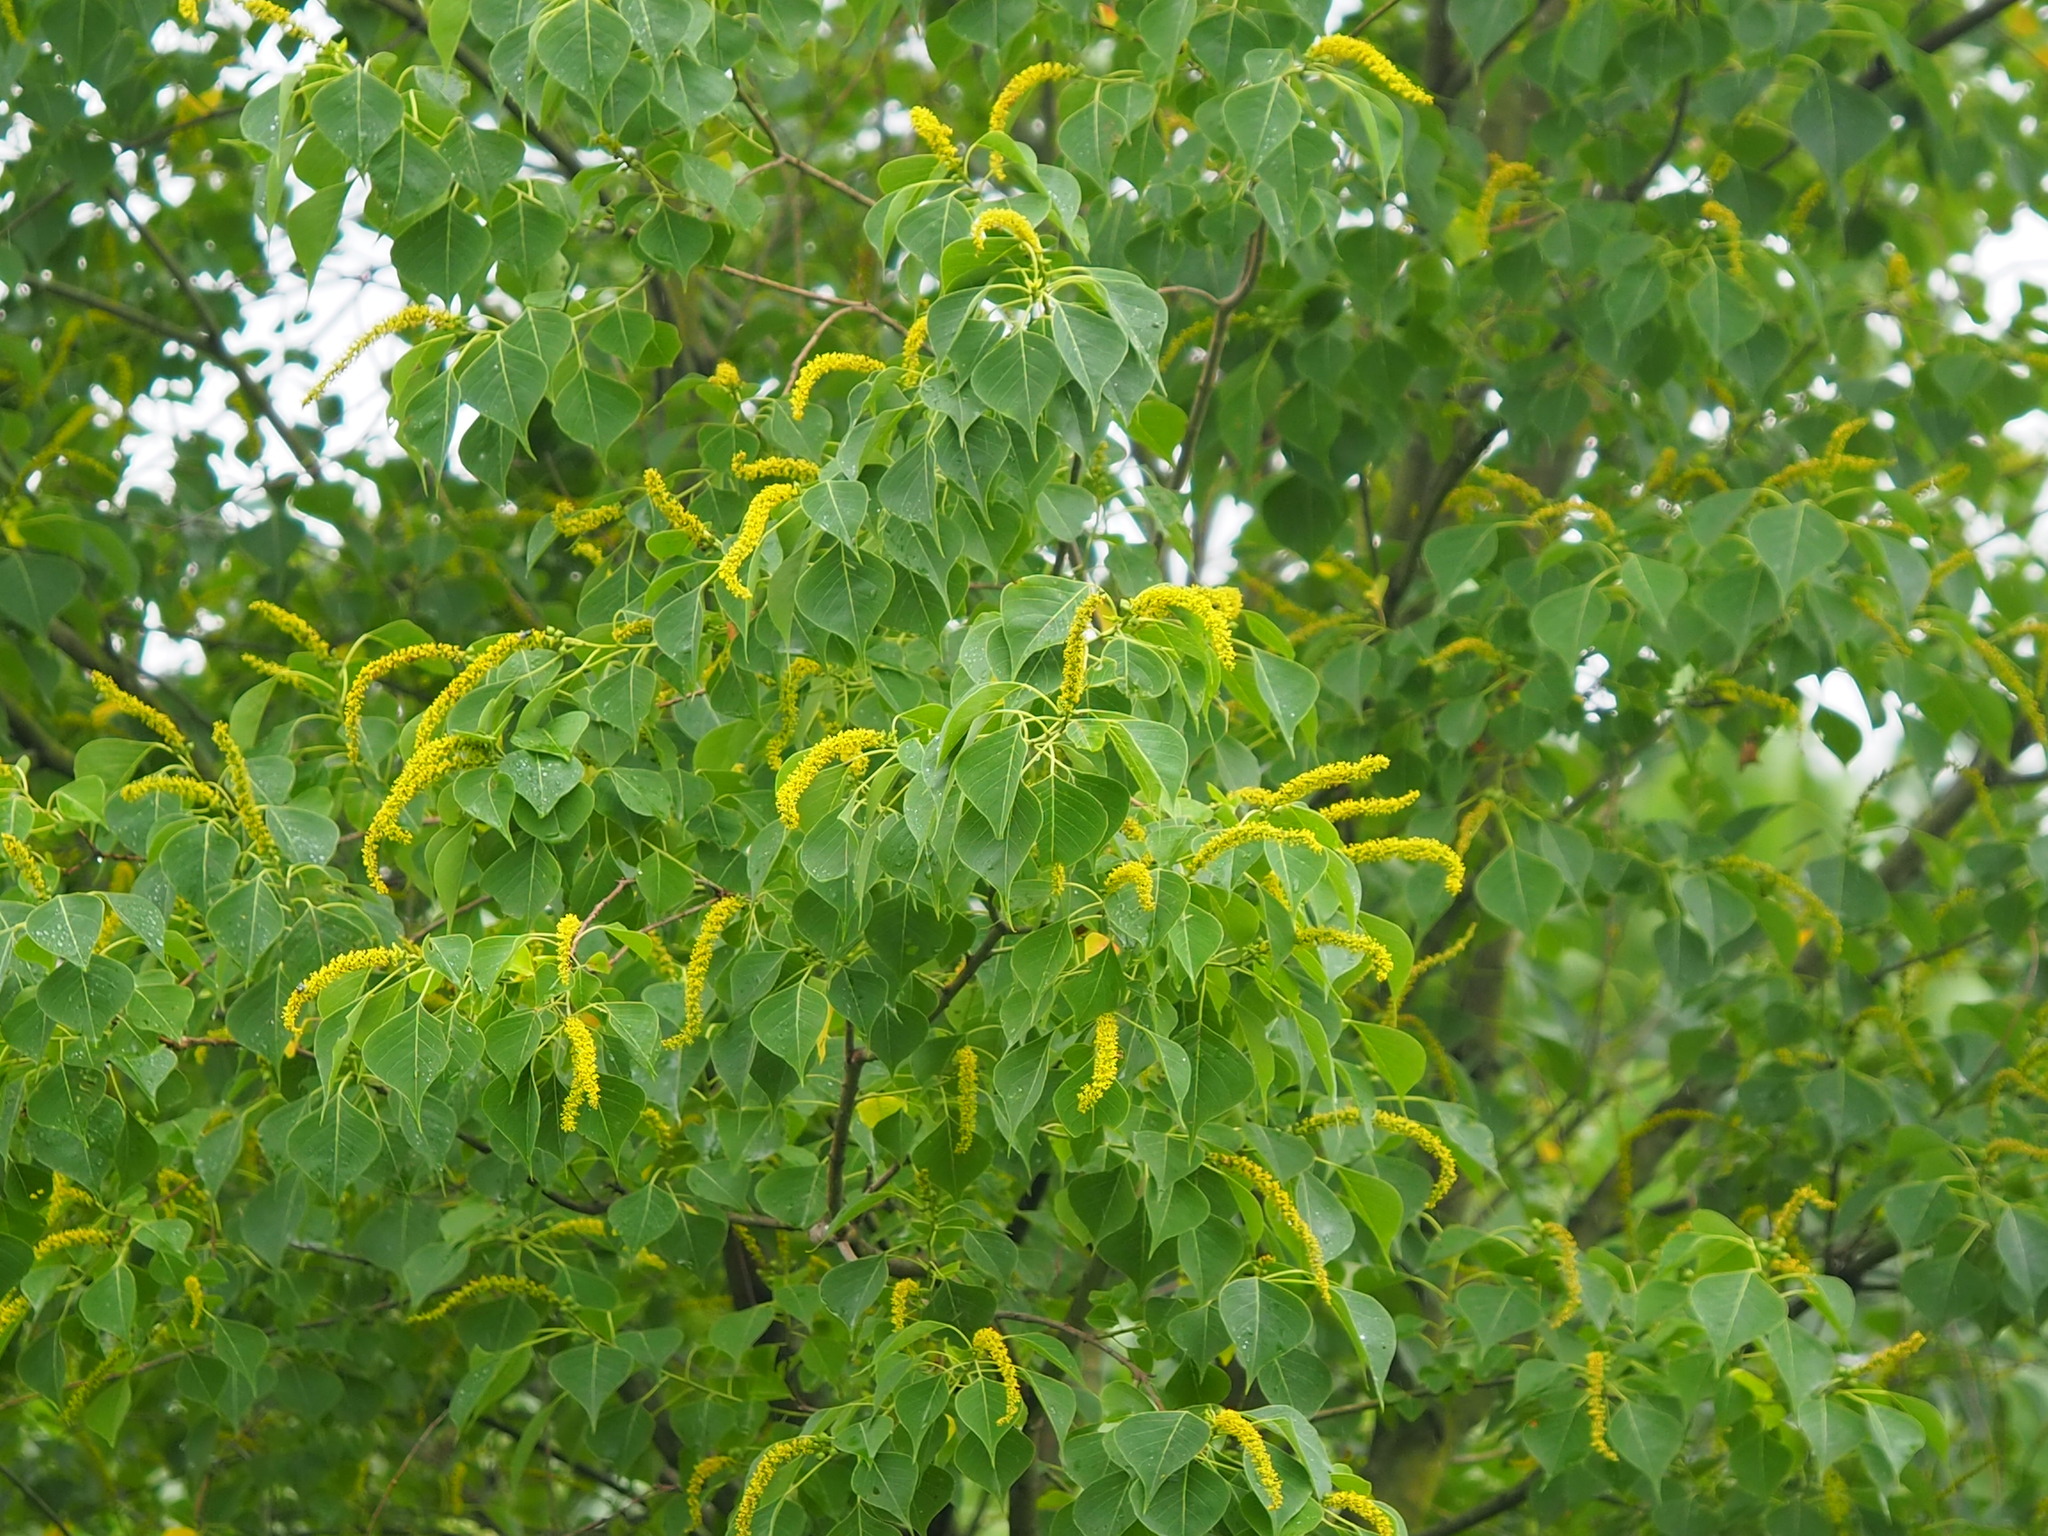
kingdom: Plantae
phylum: Tracheophyta
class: Magnoliopsida
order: Malpighiales
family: Euphorbiaceae
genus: Triadica
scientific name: Triadica sebifera
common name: Chinese tallow
